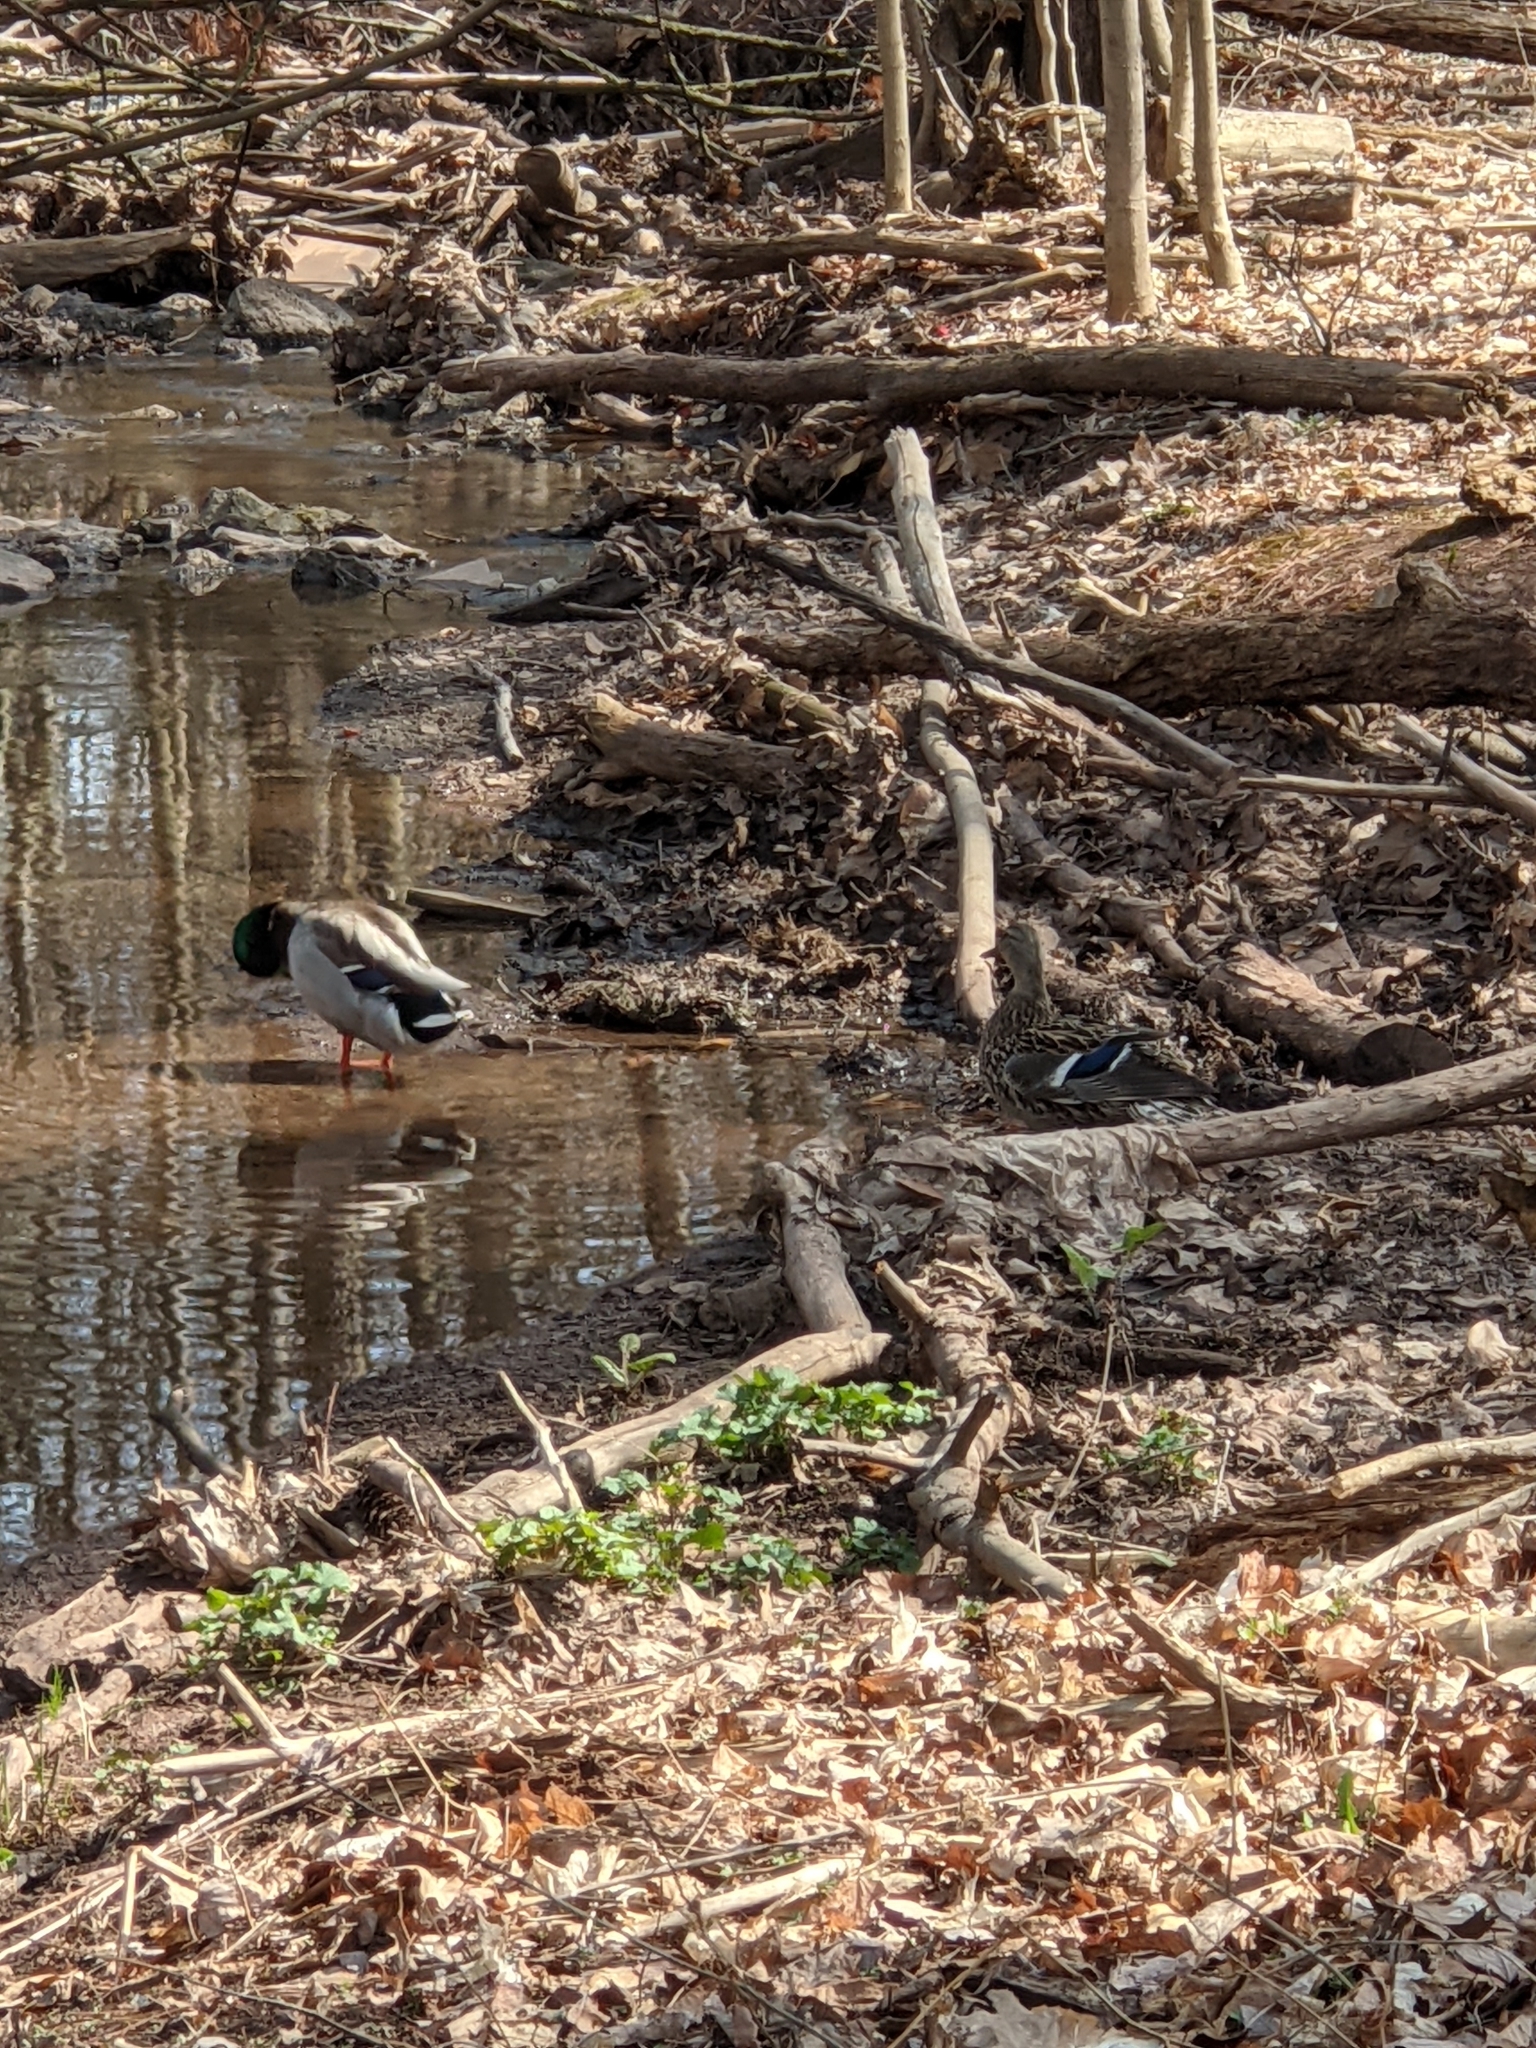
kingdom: Animalia
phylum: Chordata
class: Aves
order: Anseriformes
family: Anatidae
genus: Anas
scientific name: Anas platyrhynchos
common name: Mallard
